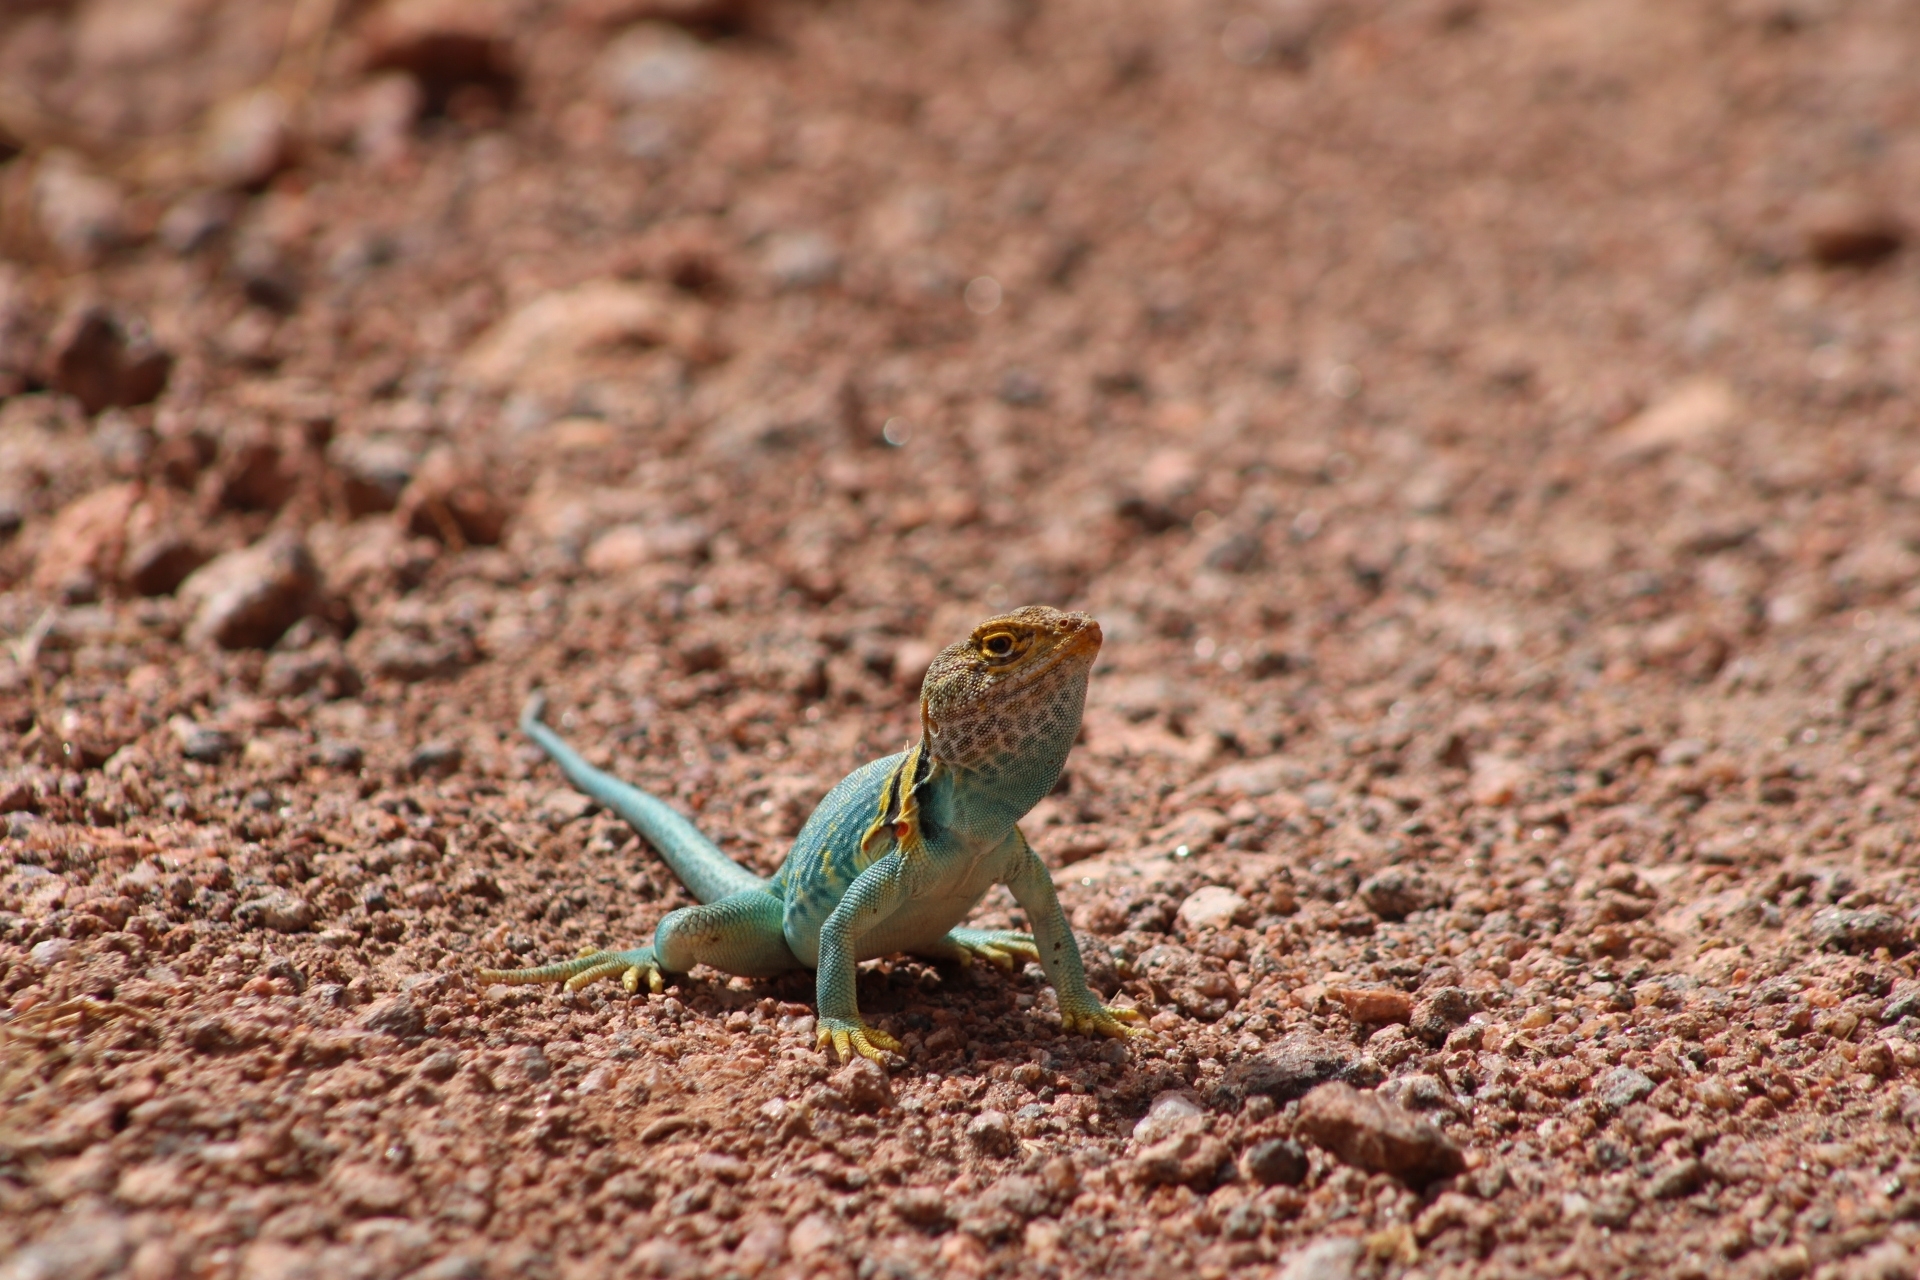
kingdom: Animalia
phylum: Chordata
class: Squamata
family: Crotaphytidae
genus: Crotaphytus
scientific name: Crotaphytus collaris
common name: Collared lizard
